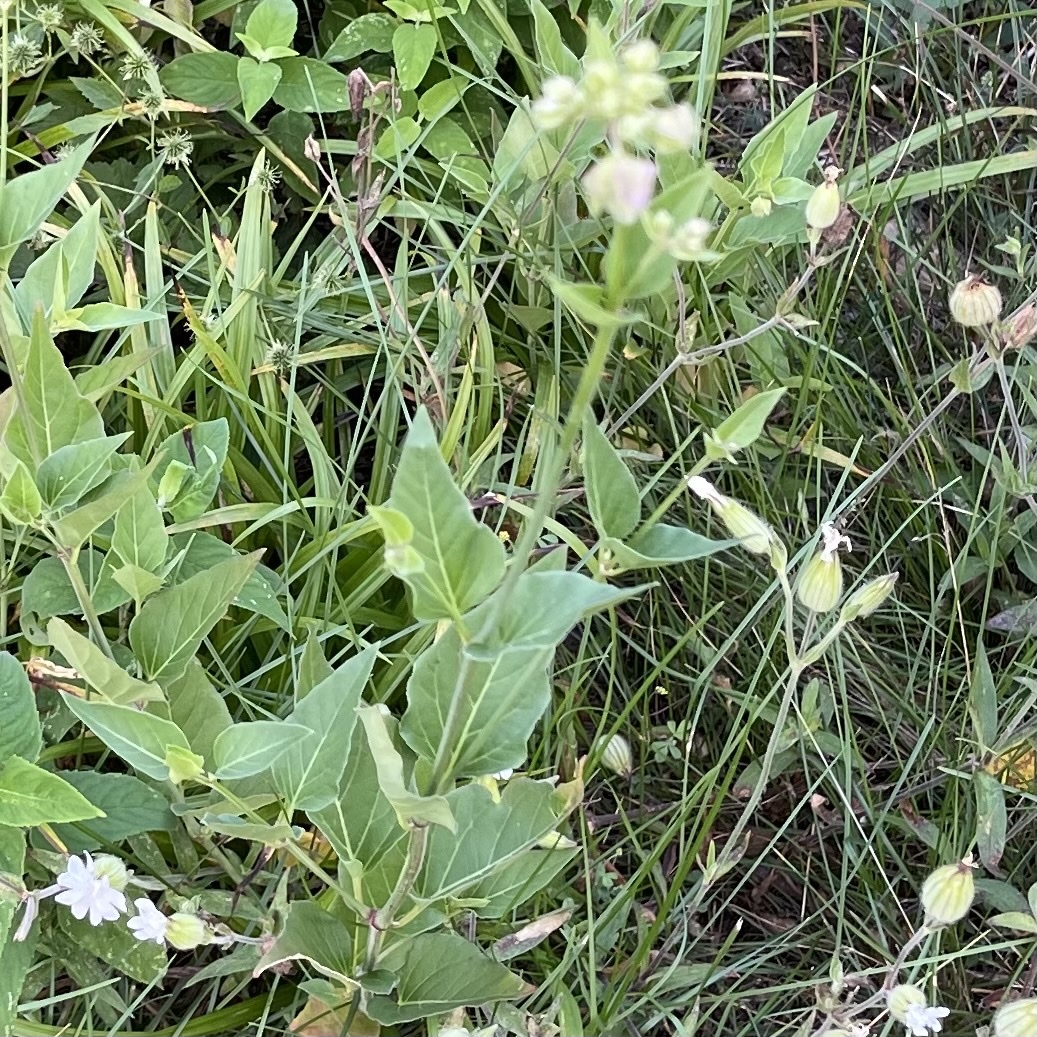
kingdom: Plantae
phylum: Tracheophyta
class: Magnoliopsida
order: Caryophyllales
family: Nyctaginaceae
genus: Mirabilis
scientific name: Mirabilis nyctaginea
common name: Umbrella wort
